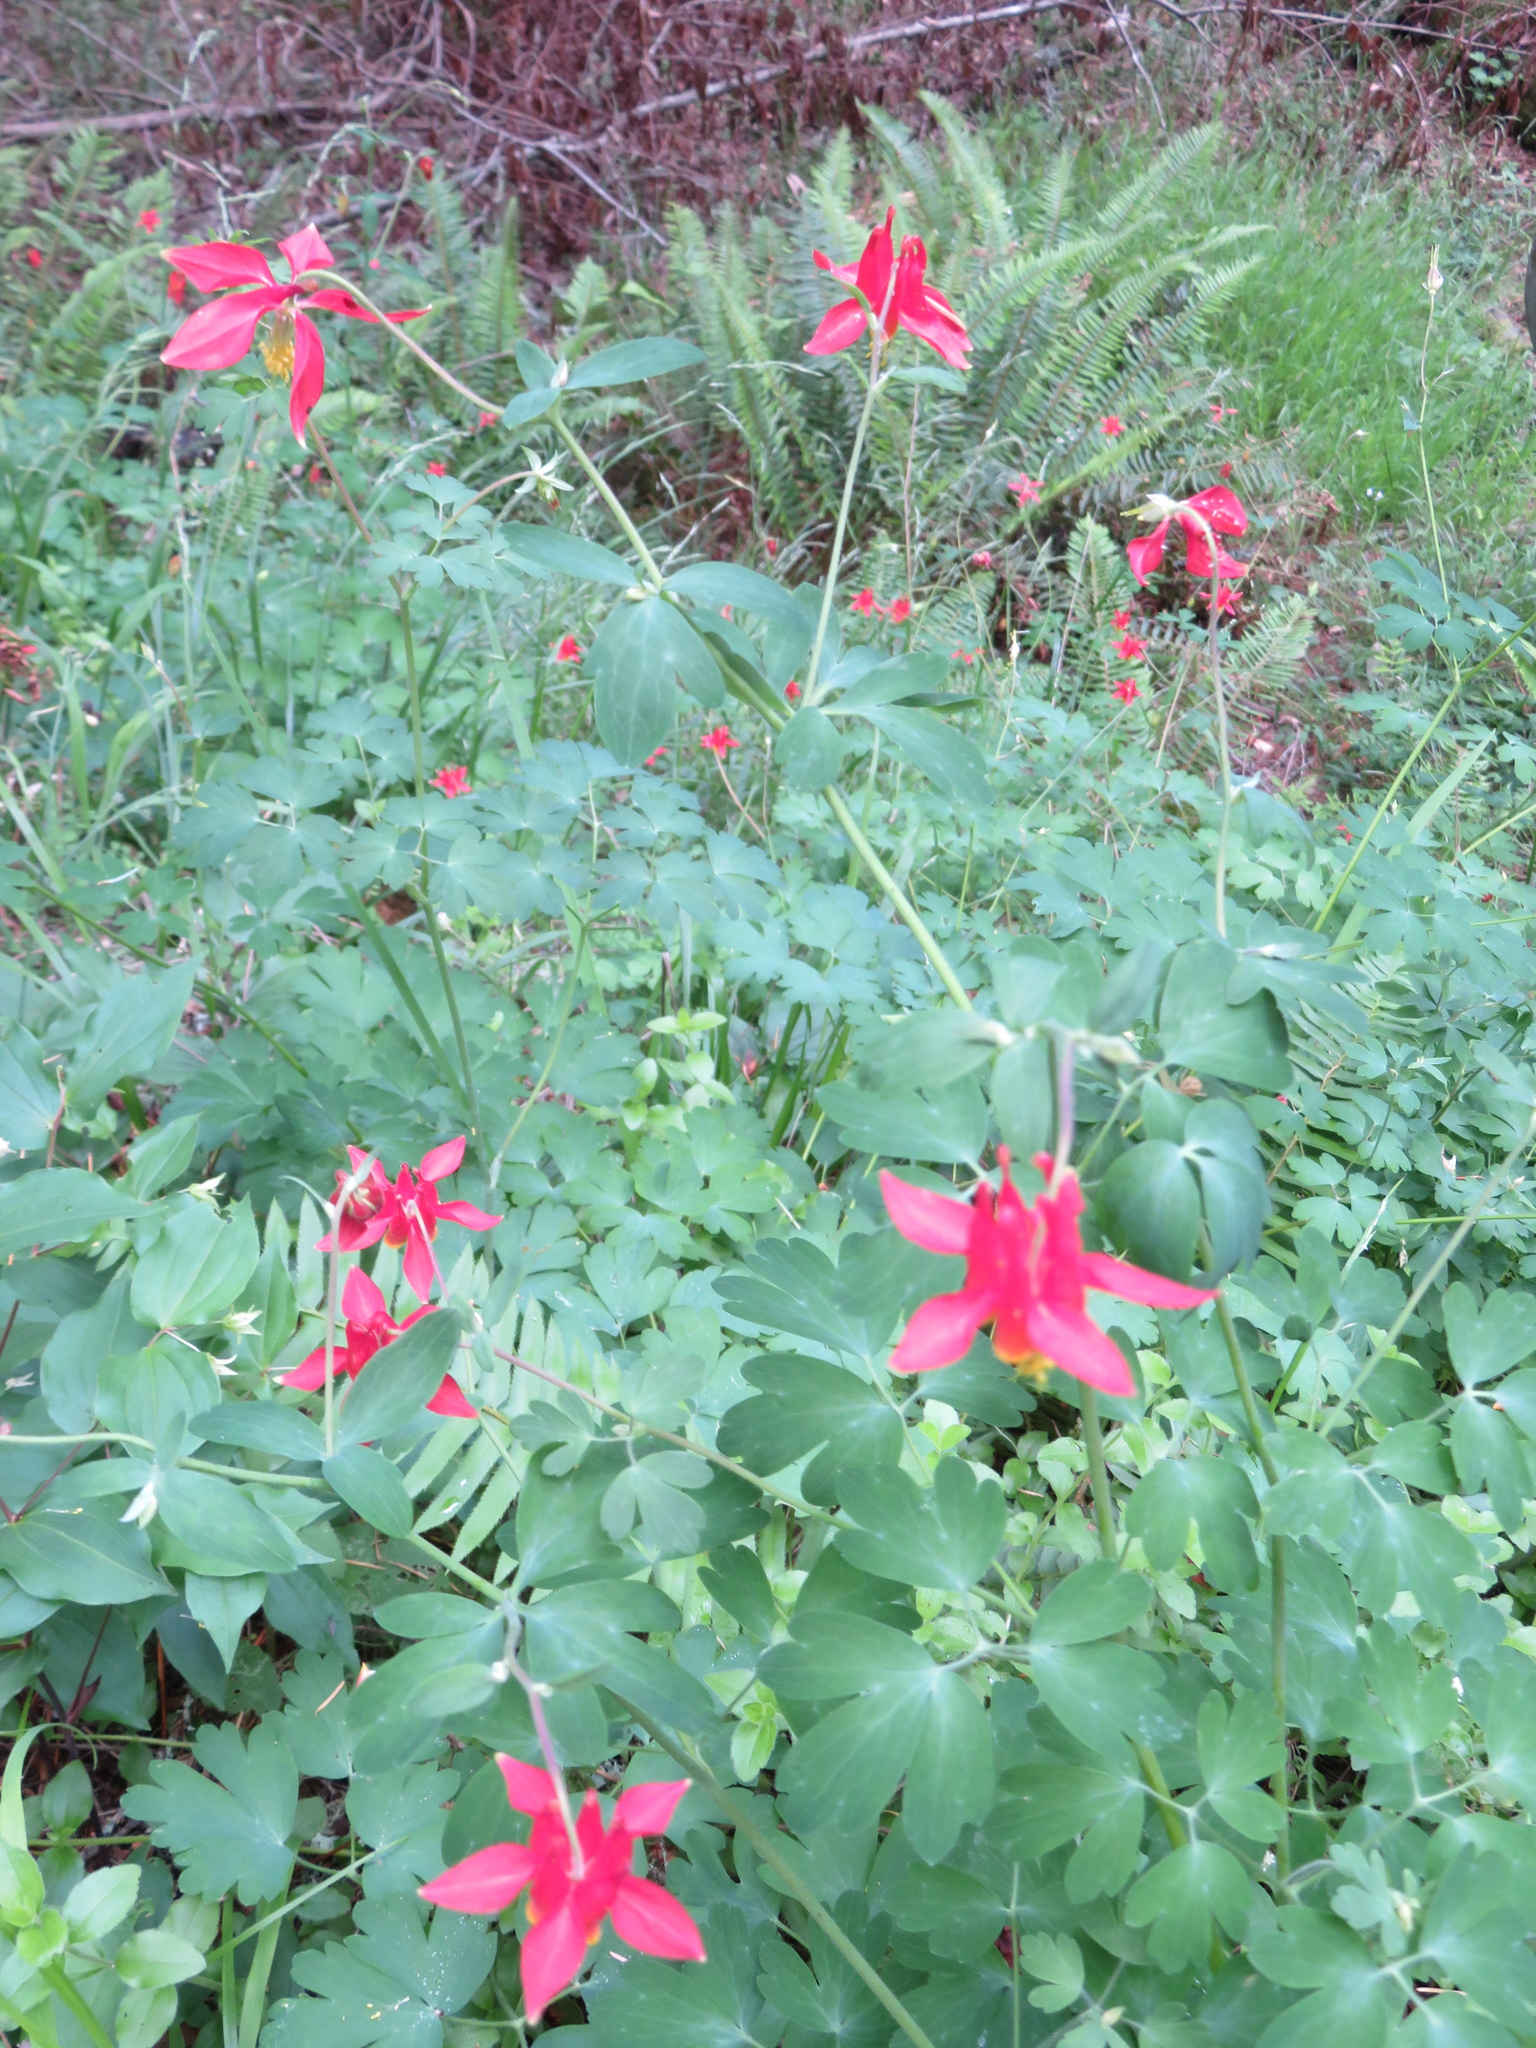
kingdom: Plantae
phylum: Tracheophyta
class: Magnoliopsida
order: Ranunculales
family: Ranunculaceae
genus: Aquilegia
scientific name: Aquilegia formosa
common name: Sitka columbine
